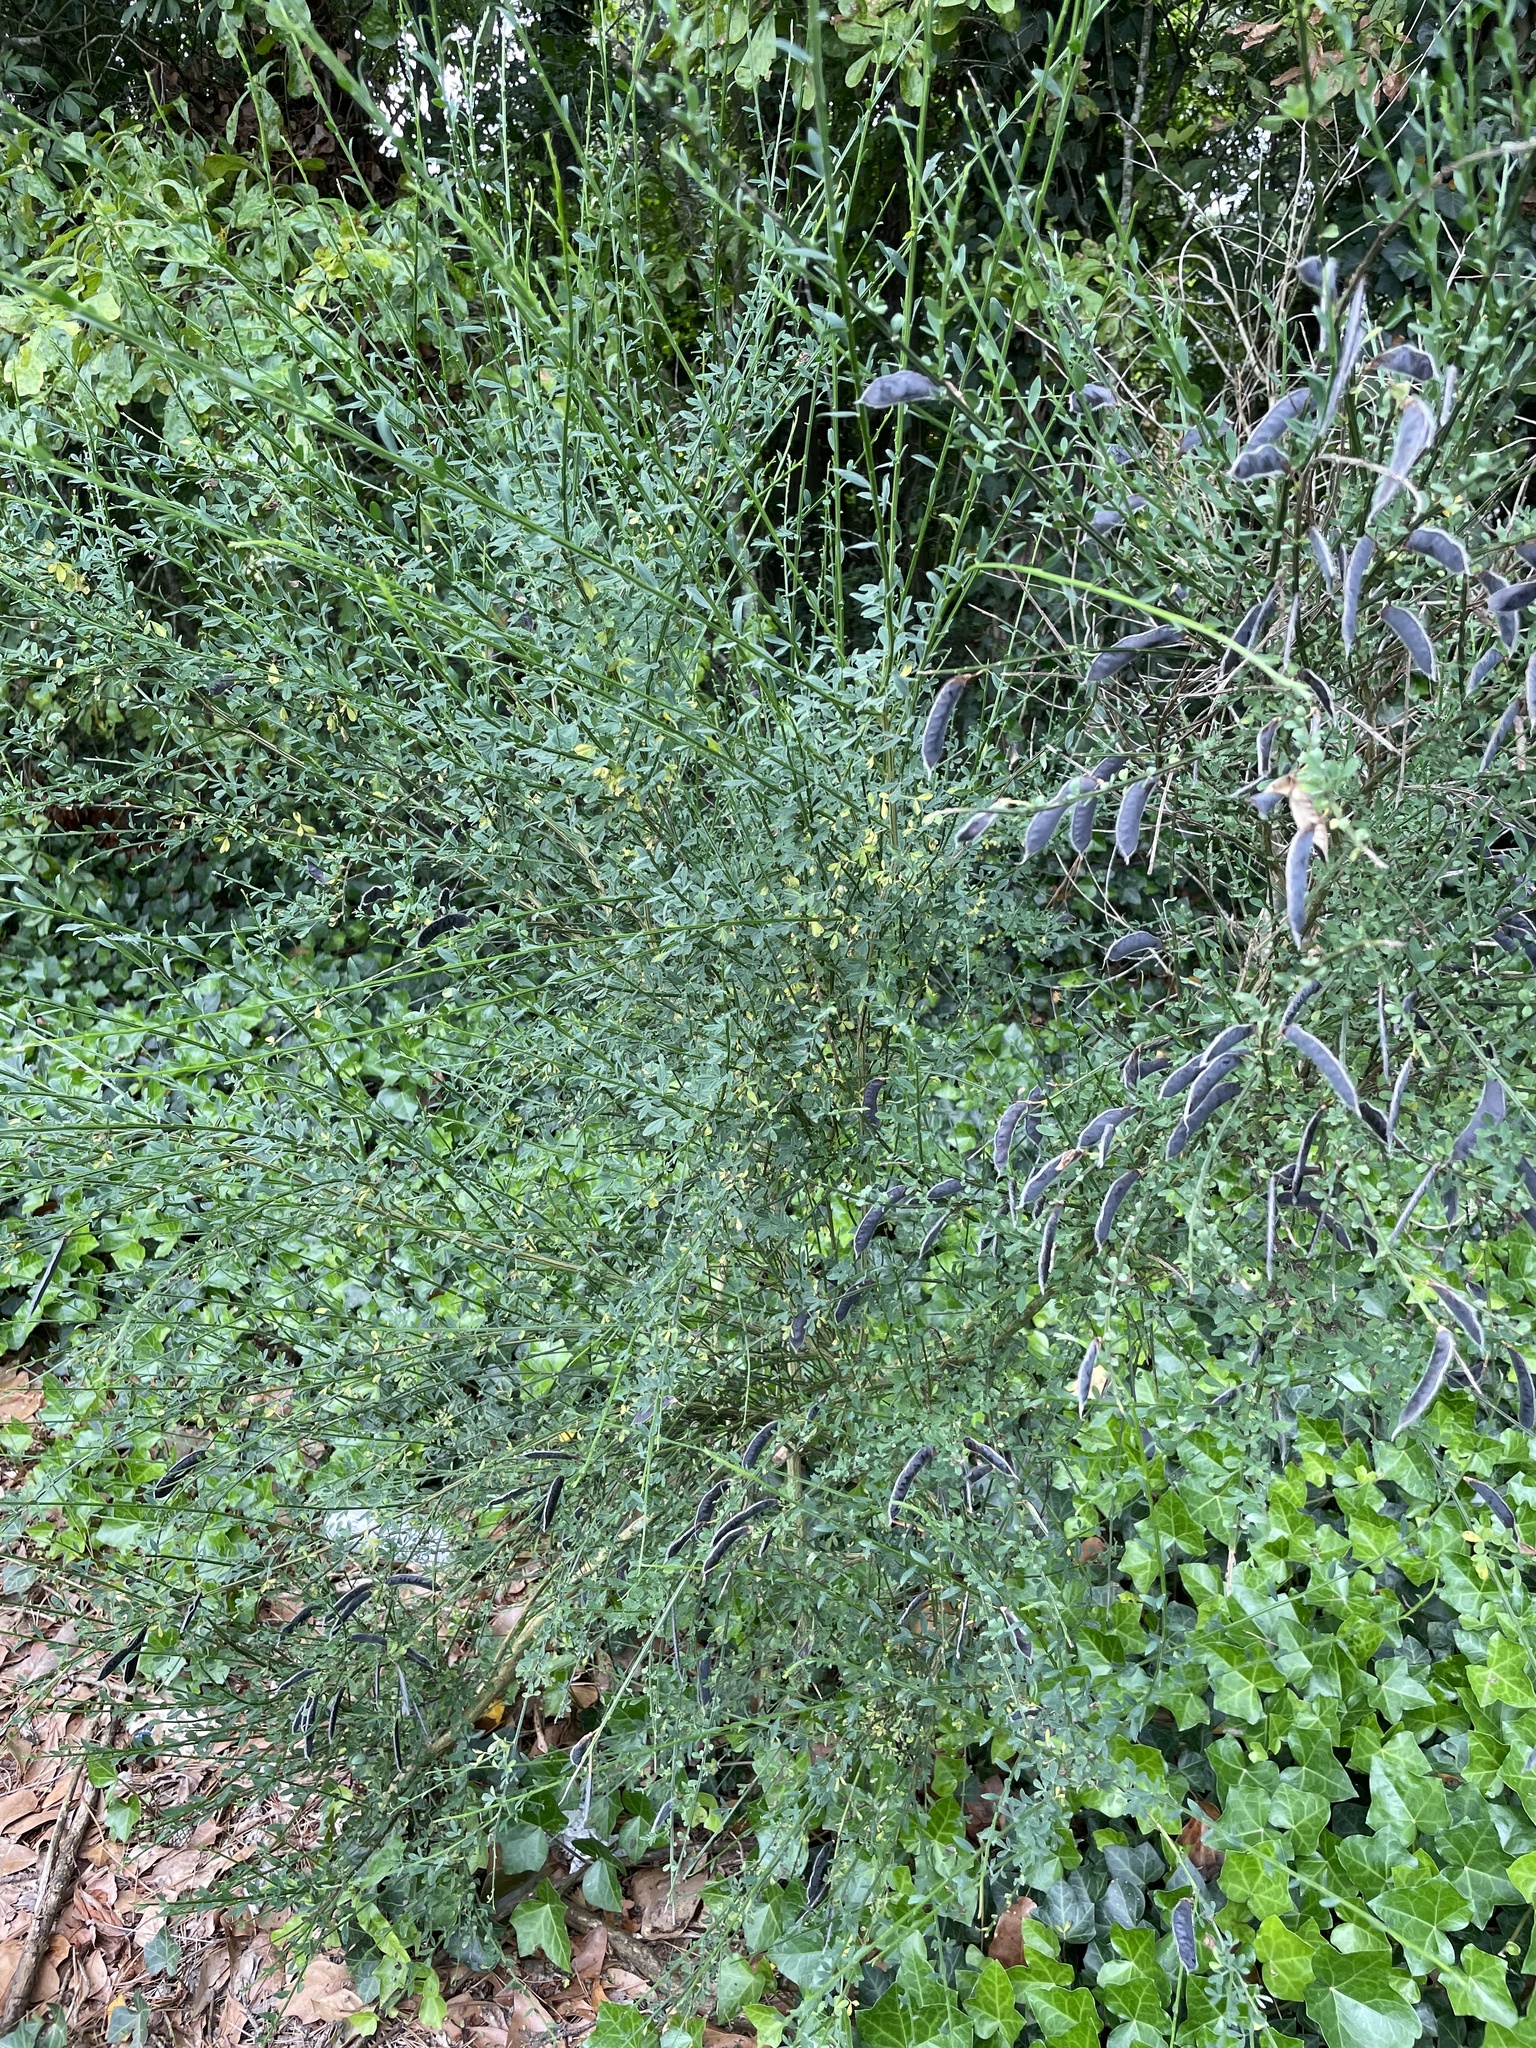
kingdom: Plantae
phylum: Tracheophyta
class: Magnoliopsida
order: Fabales
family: Fabaceae
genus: Cytisus
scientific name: Cytisus scoparius
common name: Scotch broom
